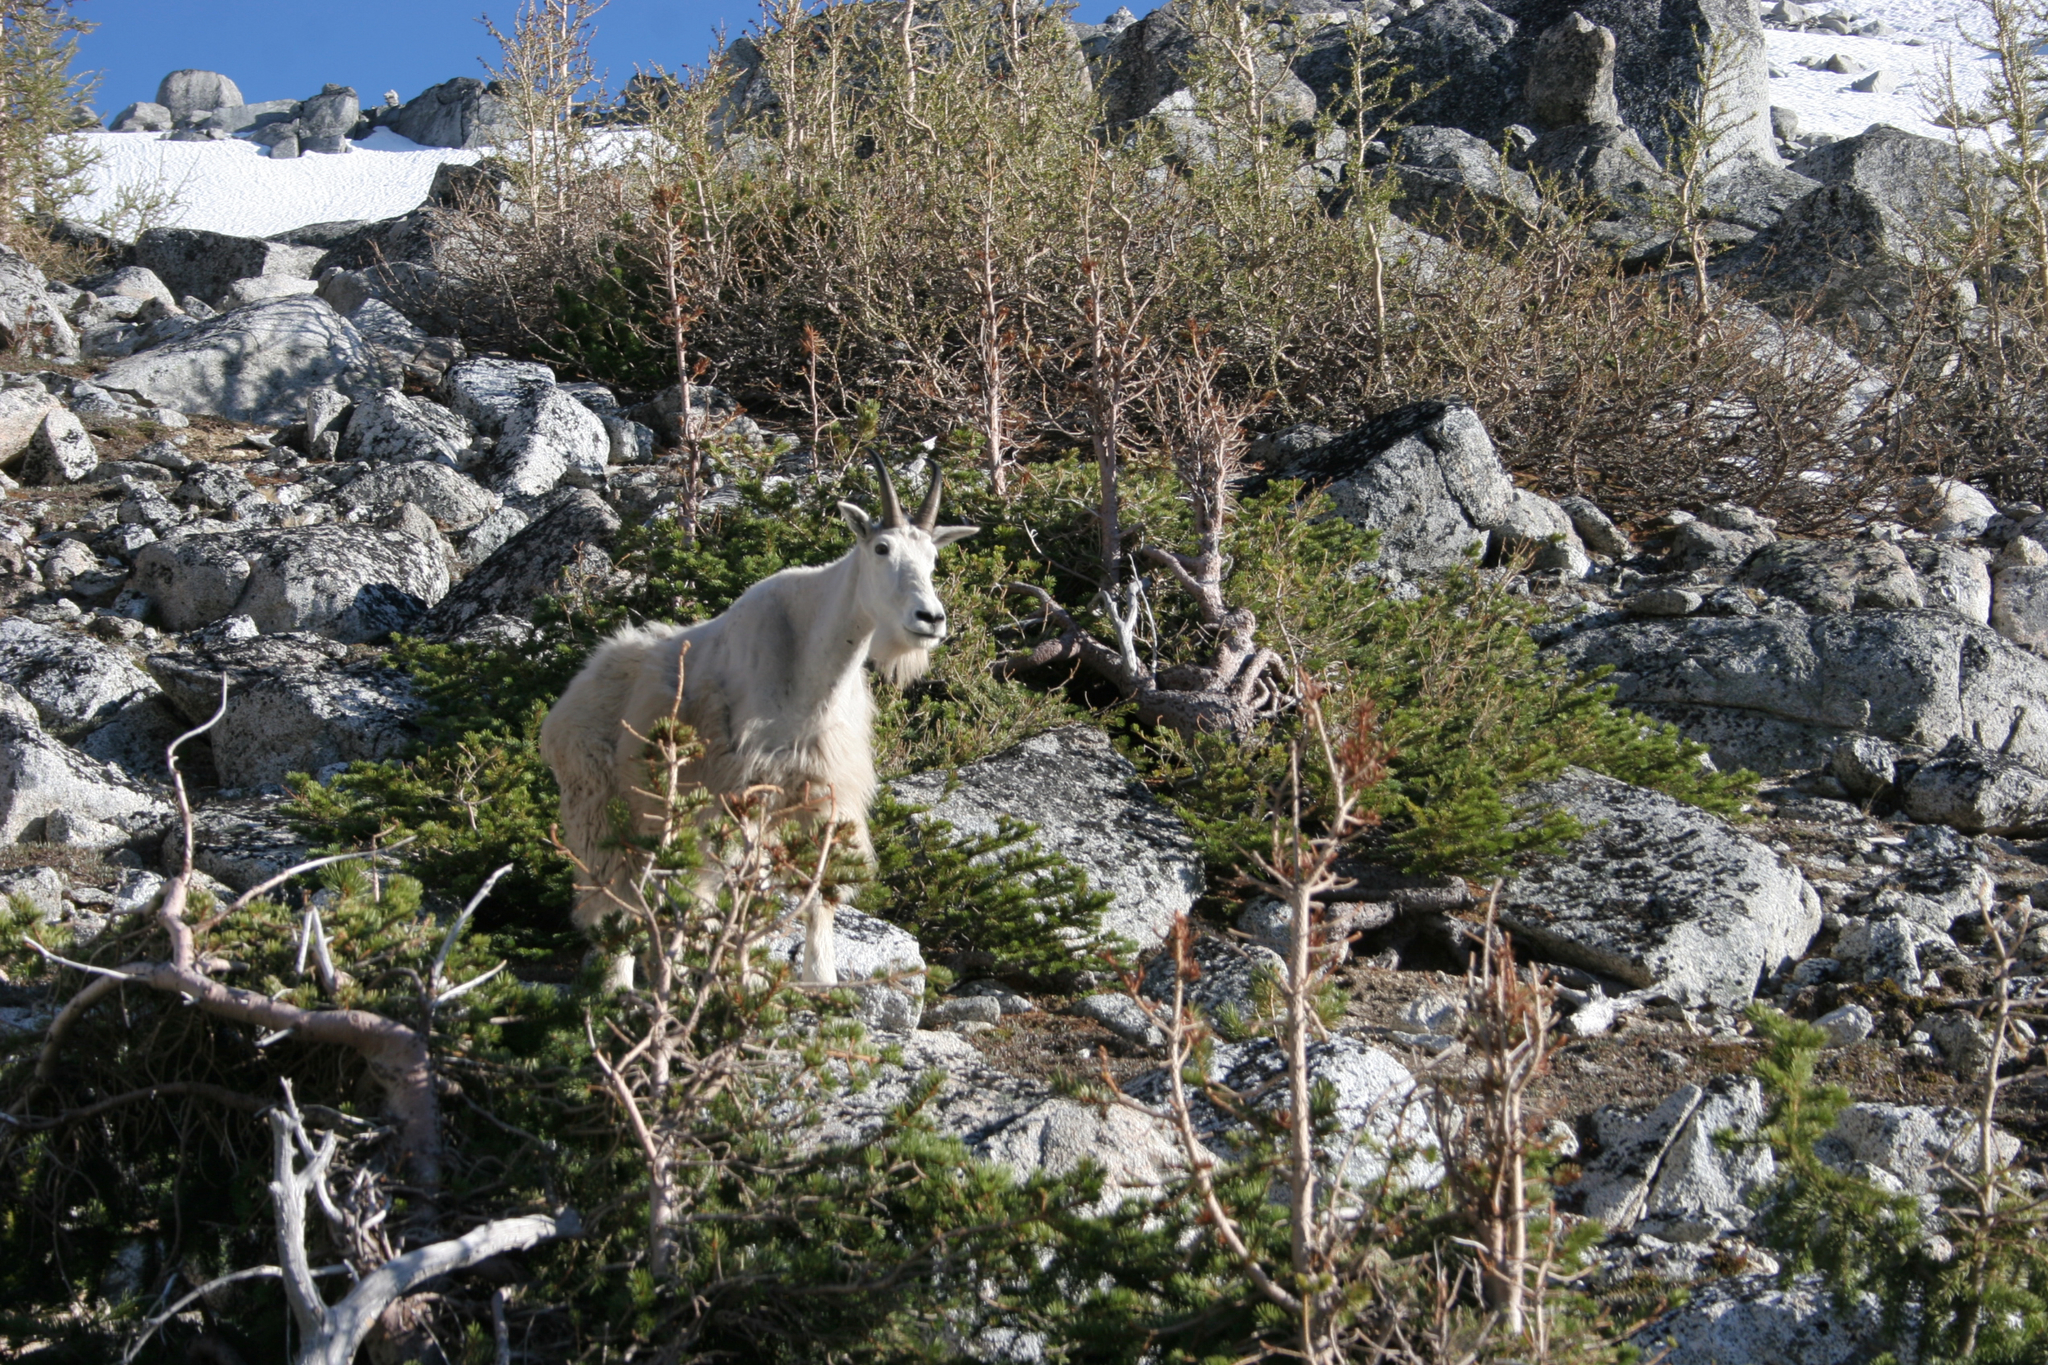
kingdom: Animalia
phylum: Chordata
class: Mammalia
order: Artiodactyla
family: Bovidae
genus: Oreamnos
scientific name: Oreamnos americanus
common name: Mountain goat
